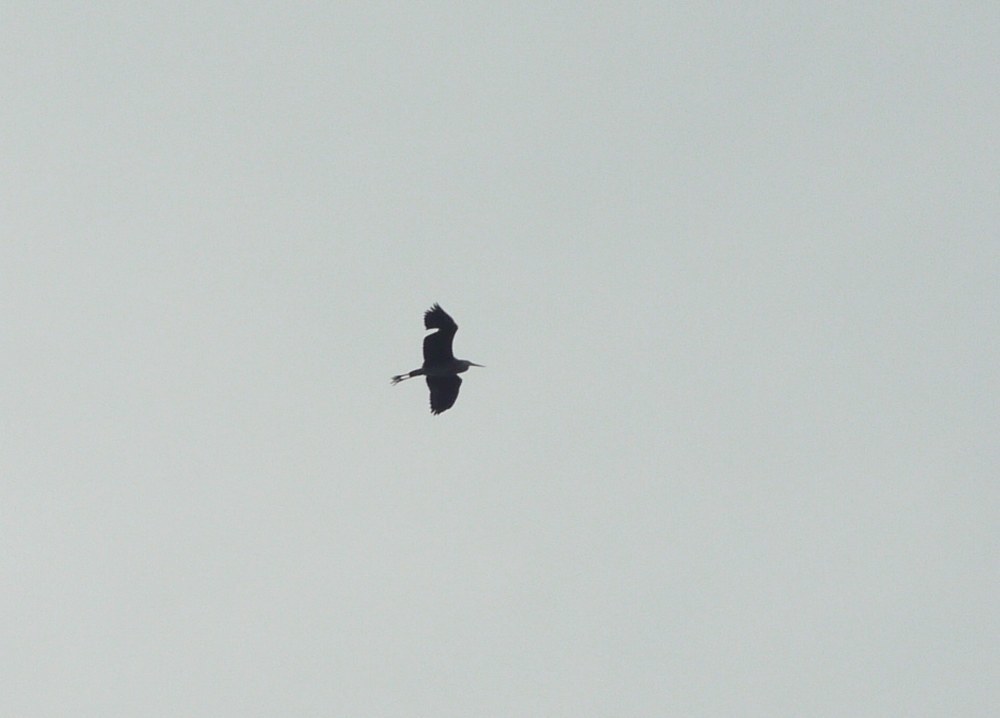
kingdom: Animalia
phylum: Chordata
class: Aves
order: Pelecaniformes
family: Ardeidae
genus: Ardea
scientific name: Ardea cinerea
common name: Grey heron
